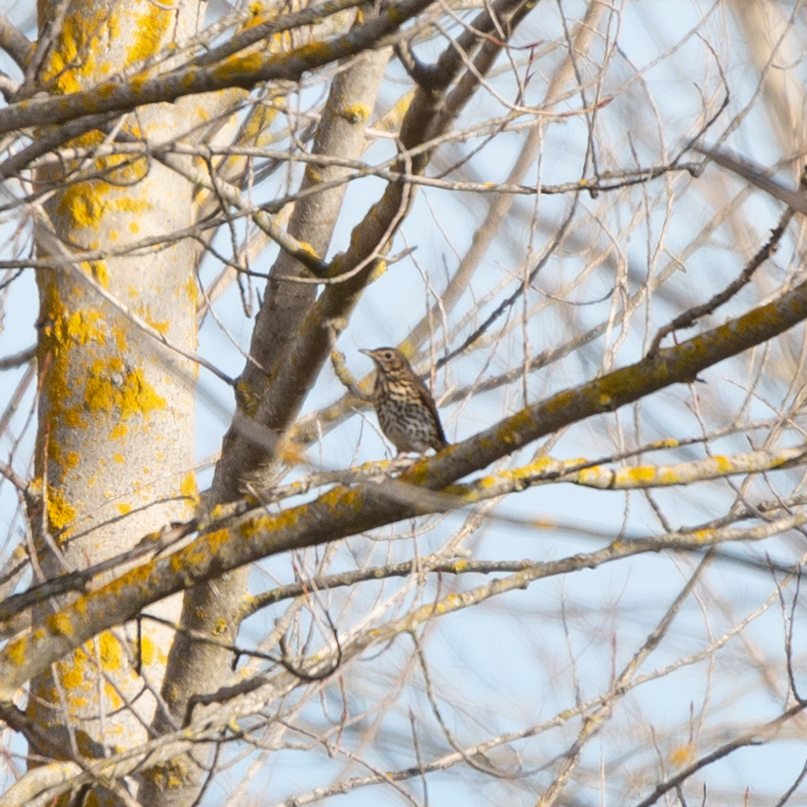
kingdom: Animalia
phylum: Chordata
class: Aves
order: Passeriformes
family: Turdidae
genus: Turdus
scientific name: Turdus philomelos
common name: Song thrush
